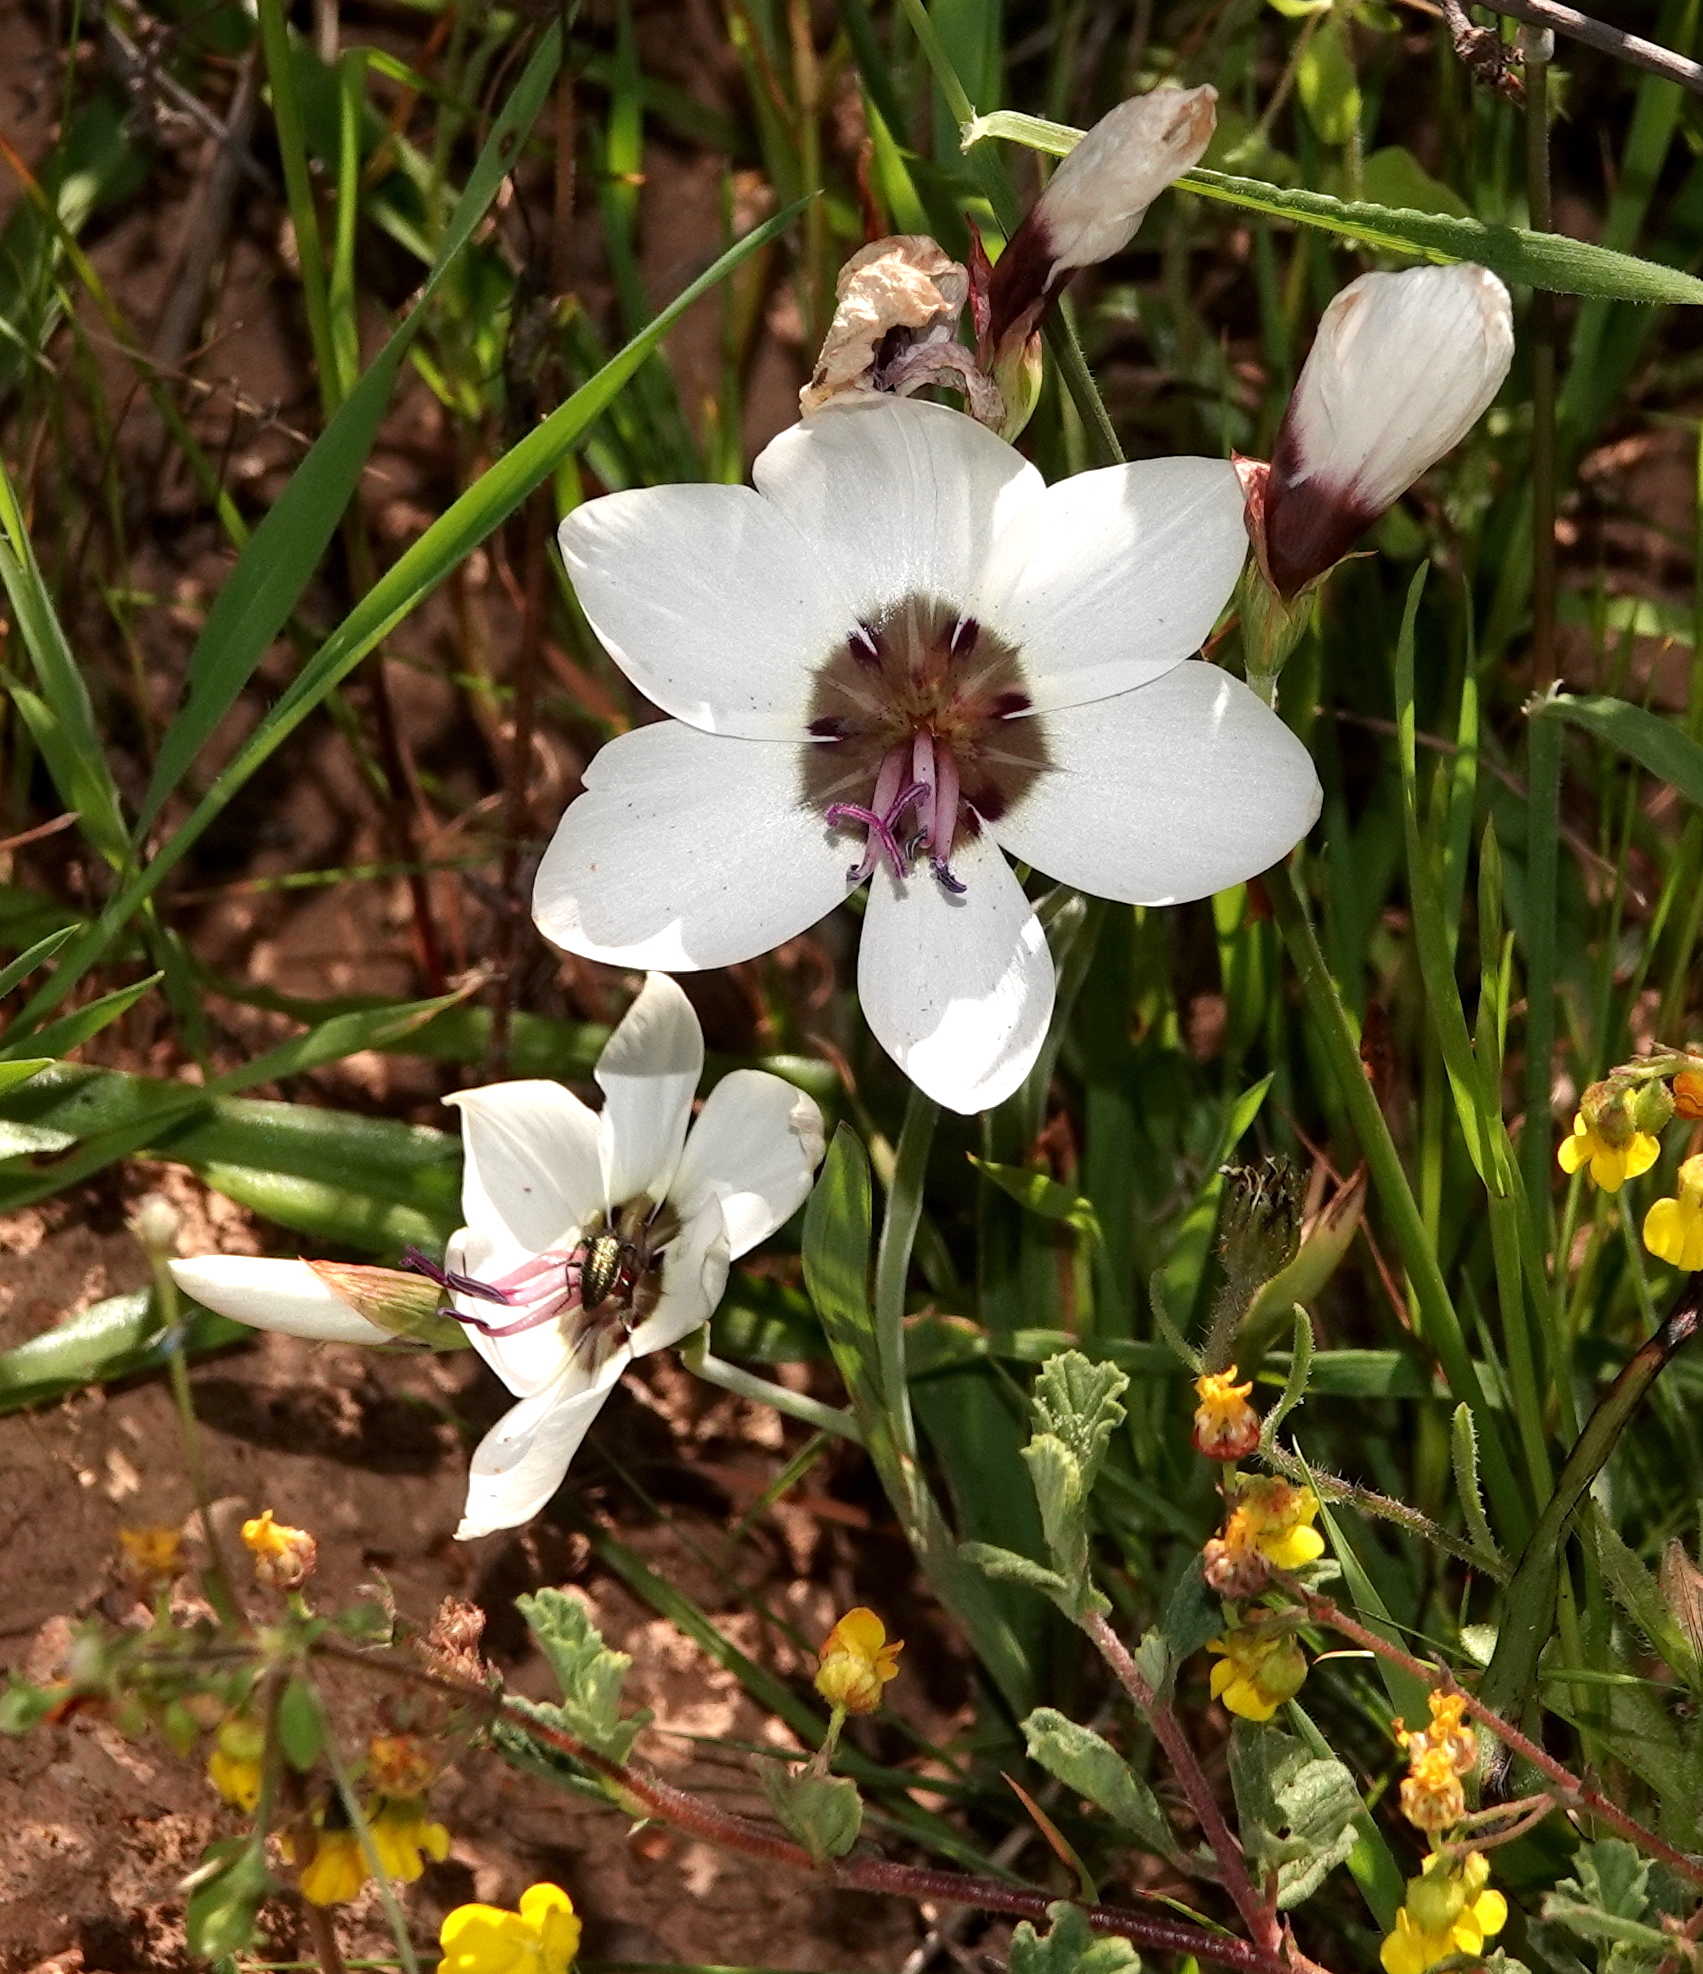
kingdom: Plantae
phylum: Tracheophyta
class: Liliopsida
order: Asparagales
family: Iridaceae
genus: Geissorhiza
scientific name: Geissorhiza tulbaghensis
